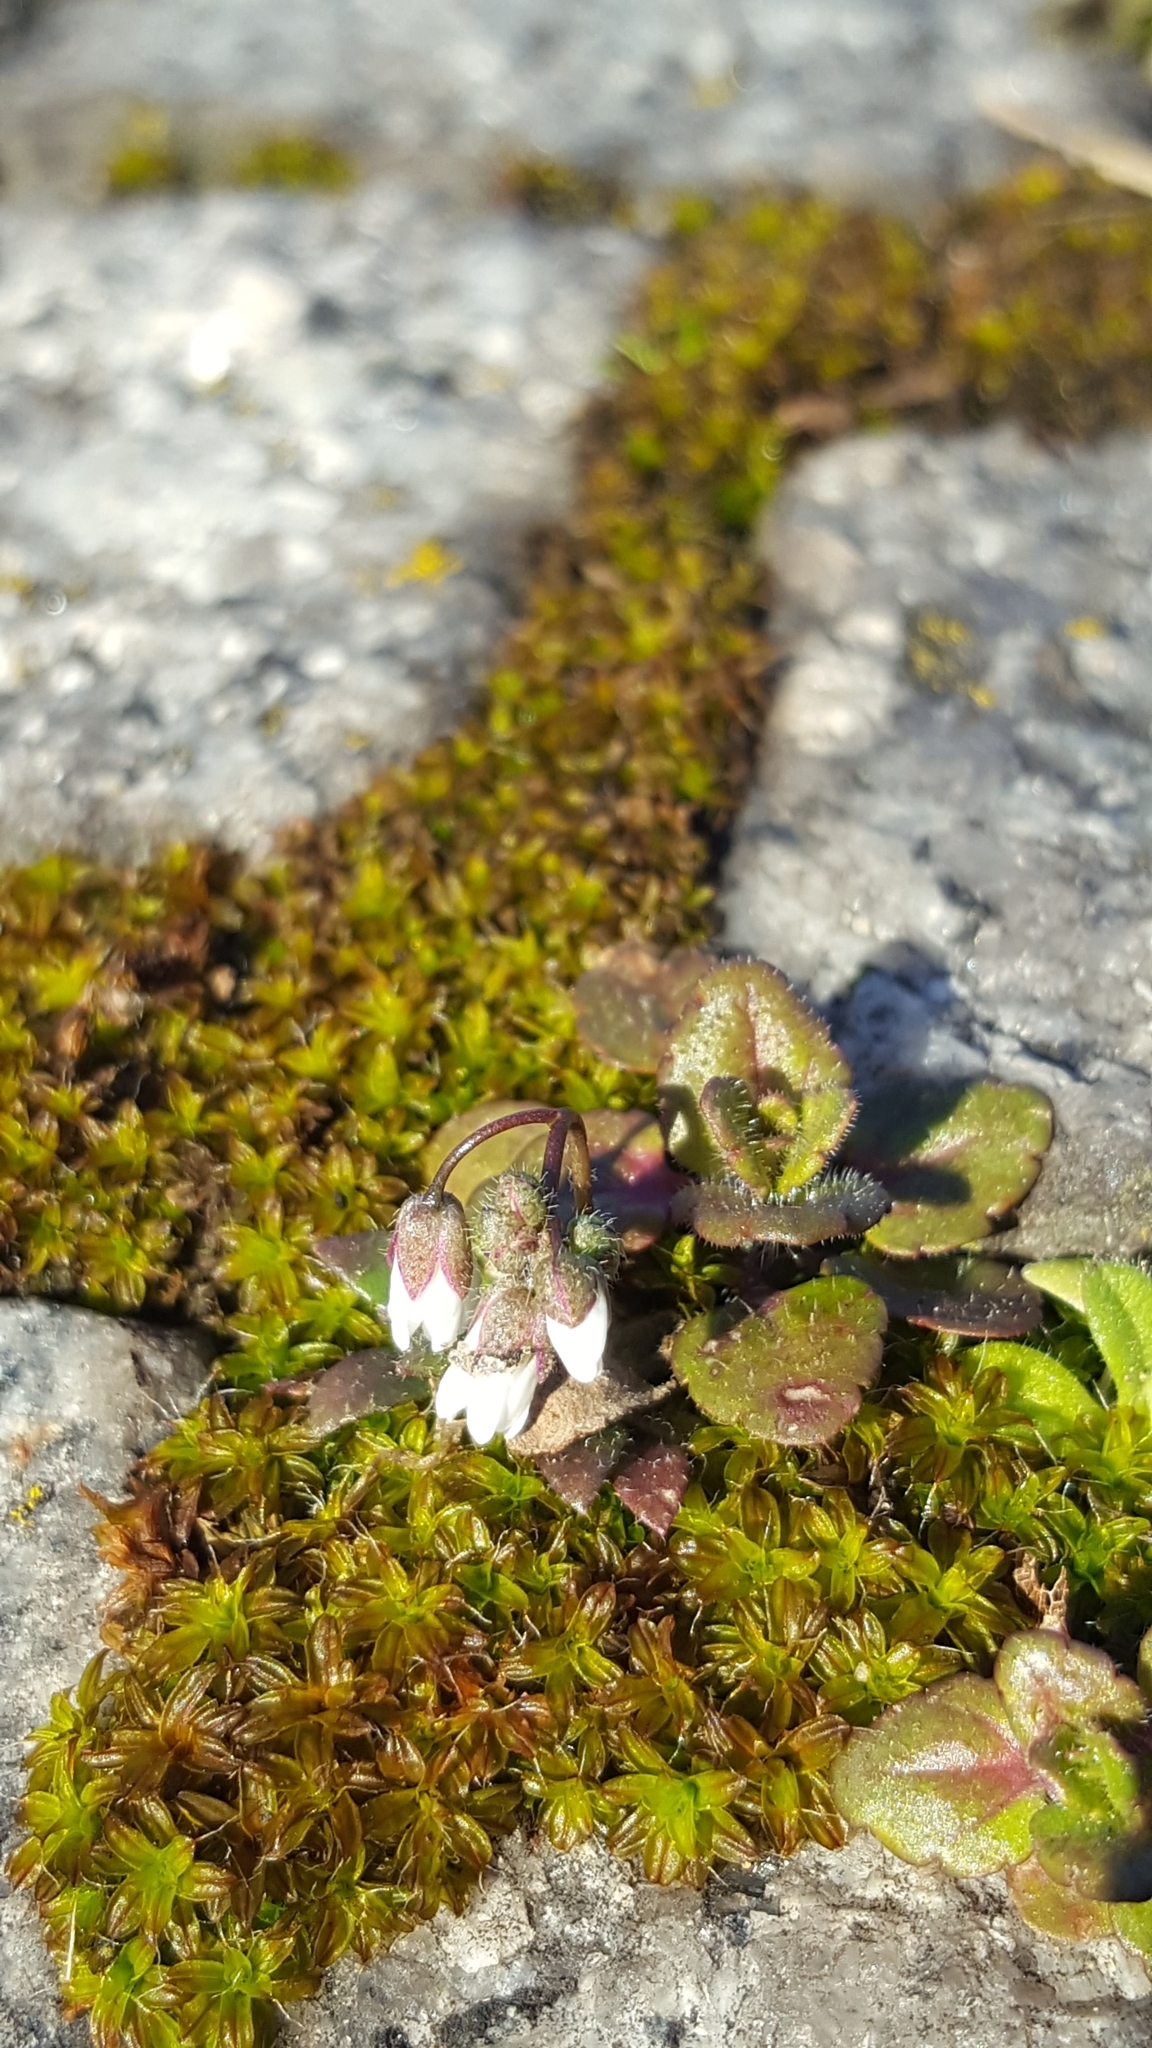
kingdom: Plantae
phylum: Tracheophyta
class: Magnoliopsida
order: Brassicales
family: Brassicaceae
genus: Draba
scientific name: Draba verna
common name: Spring draba
